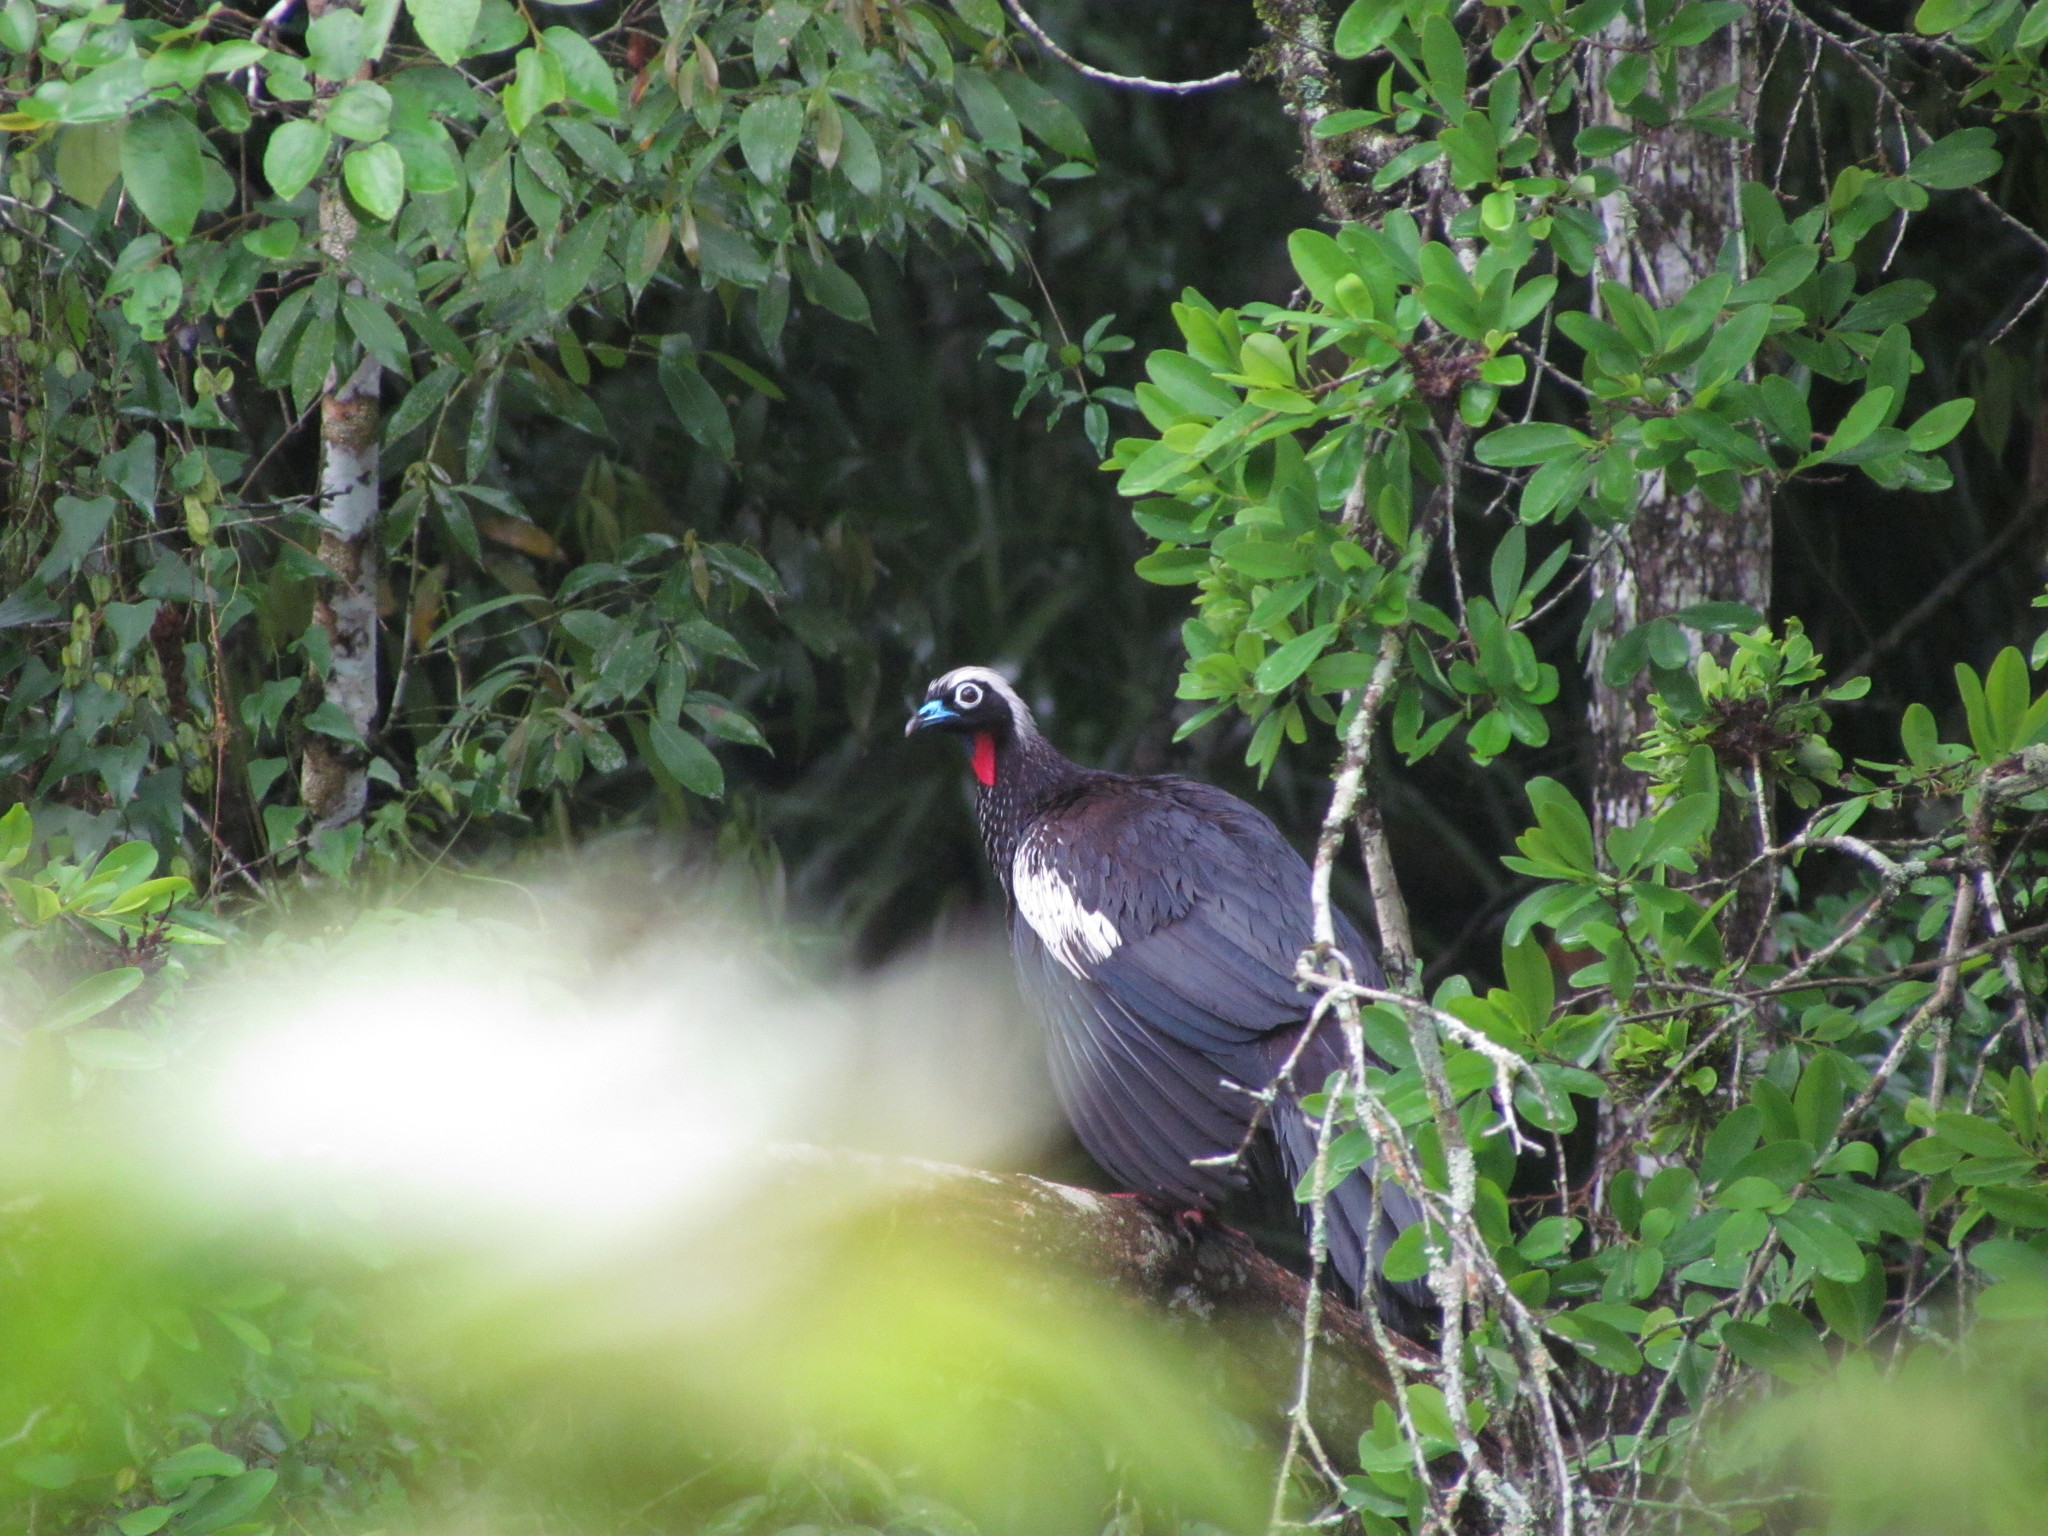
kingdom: Animalia
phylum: Chordata
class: Aves
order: Galliformes
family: Cracidae
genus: Pipile
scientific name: Pipile jacutinga
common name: Black-fronted piping-guan
